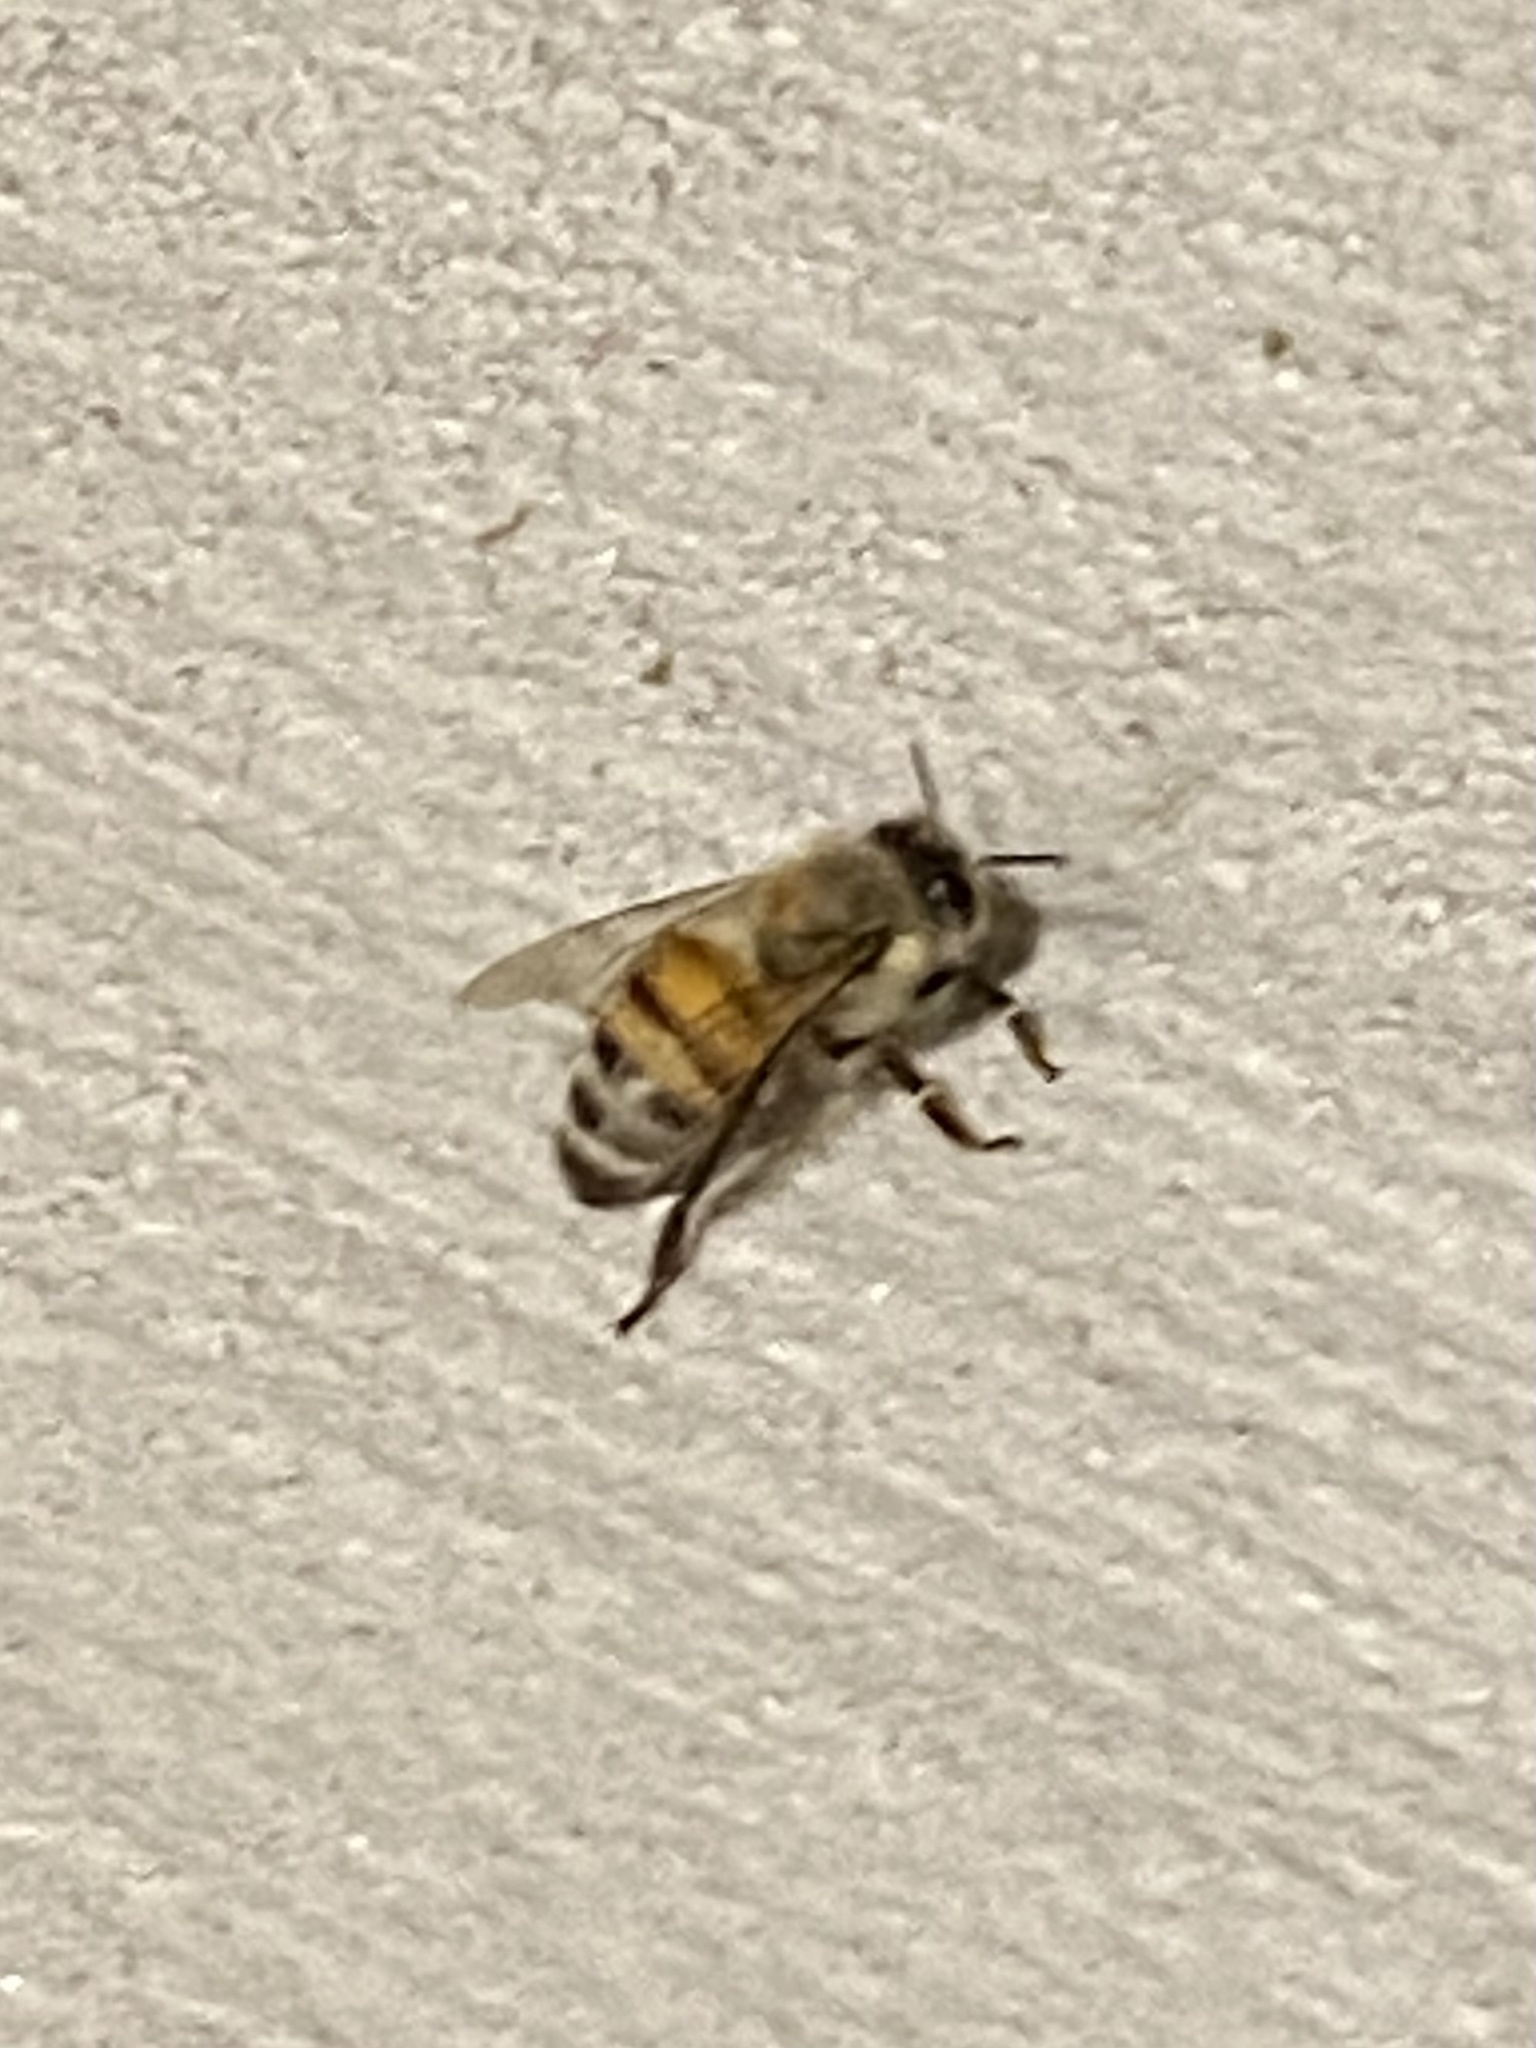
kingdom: Animalia
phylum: Arthropoda
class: Insecta
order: Hymenoptera
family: Apidae
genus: Apis
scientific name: Apis mellifera
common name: Honey bee
